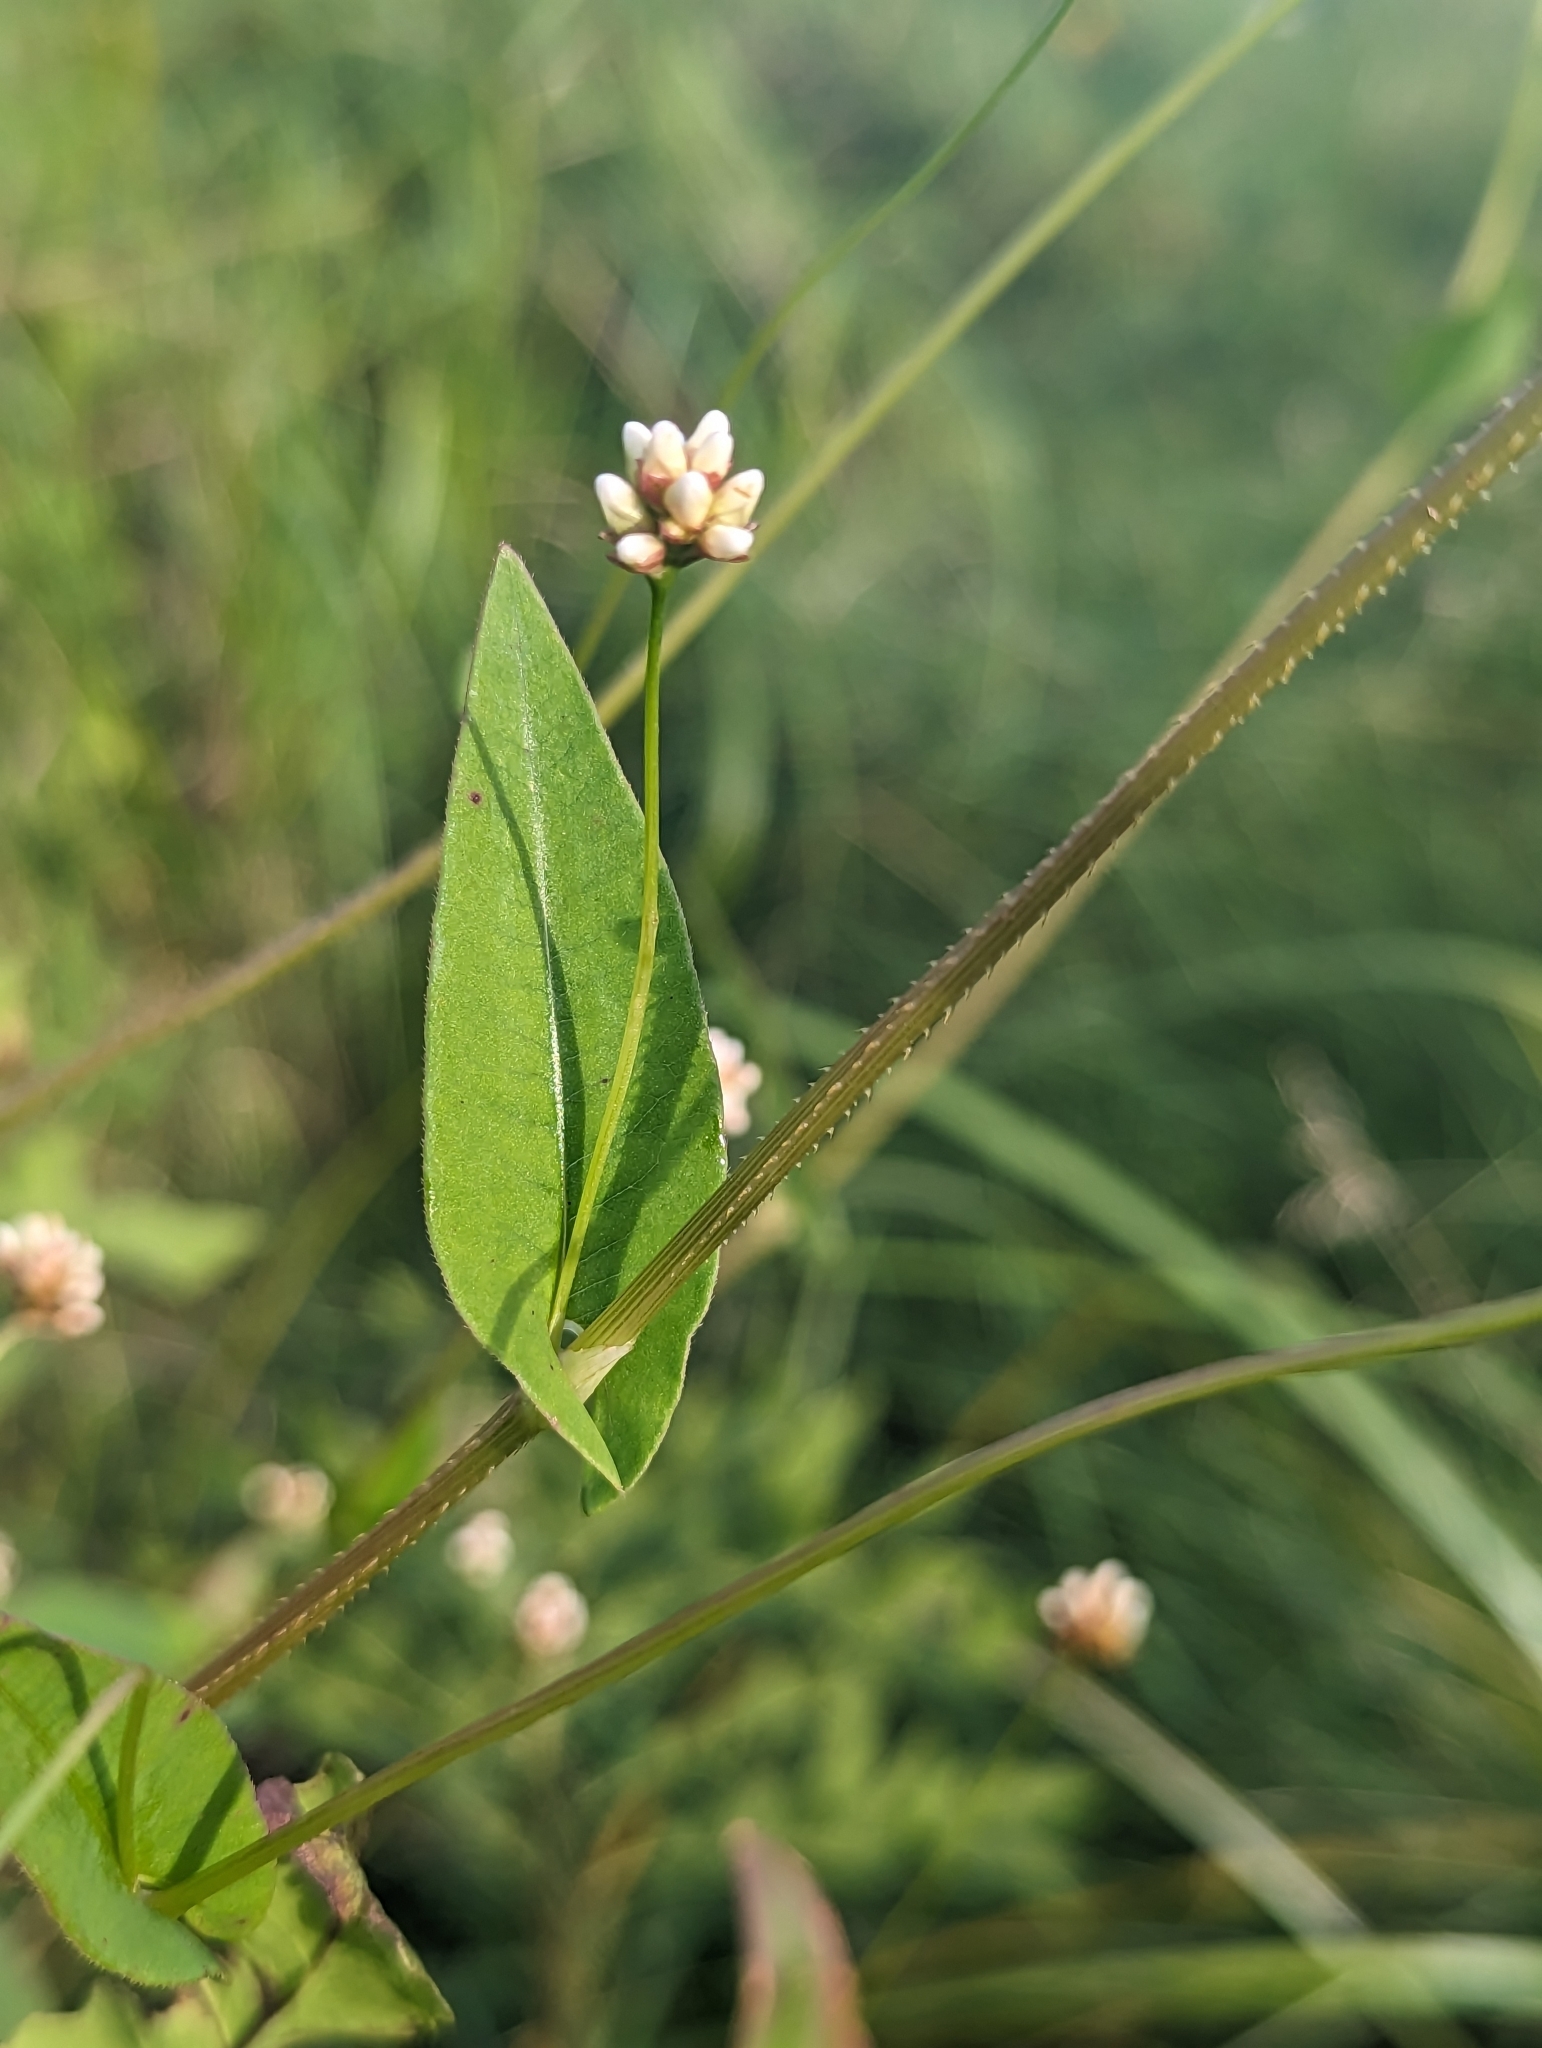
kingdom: Plantae
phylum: Tracheophyta
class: Magnoliopsida
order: Caryophyllales
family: Polygonaceae
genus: Persicaria
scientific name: Persicaria sagittata
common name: American tearthumb
